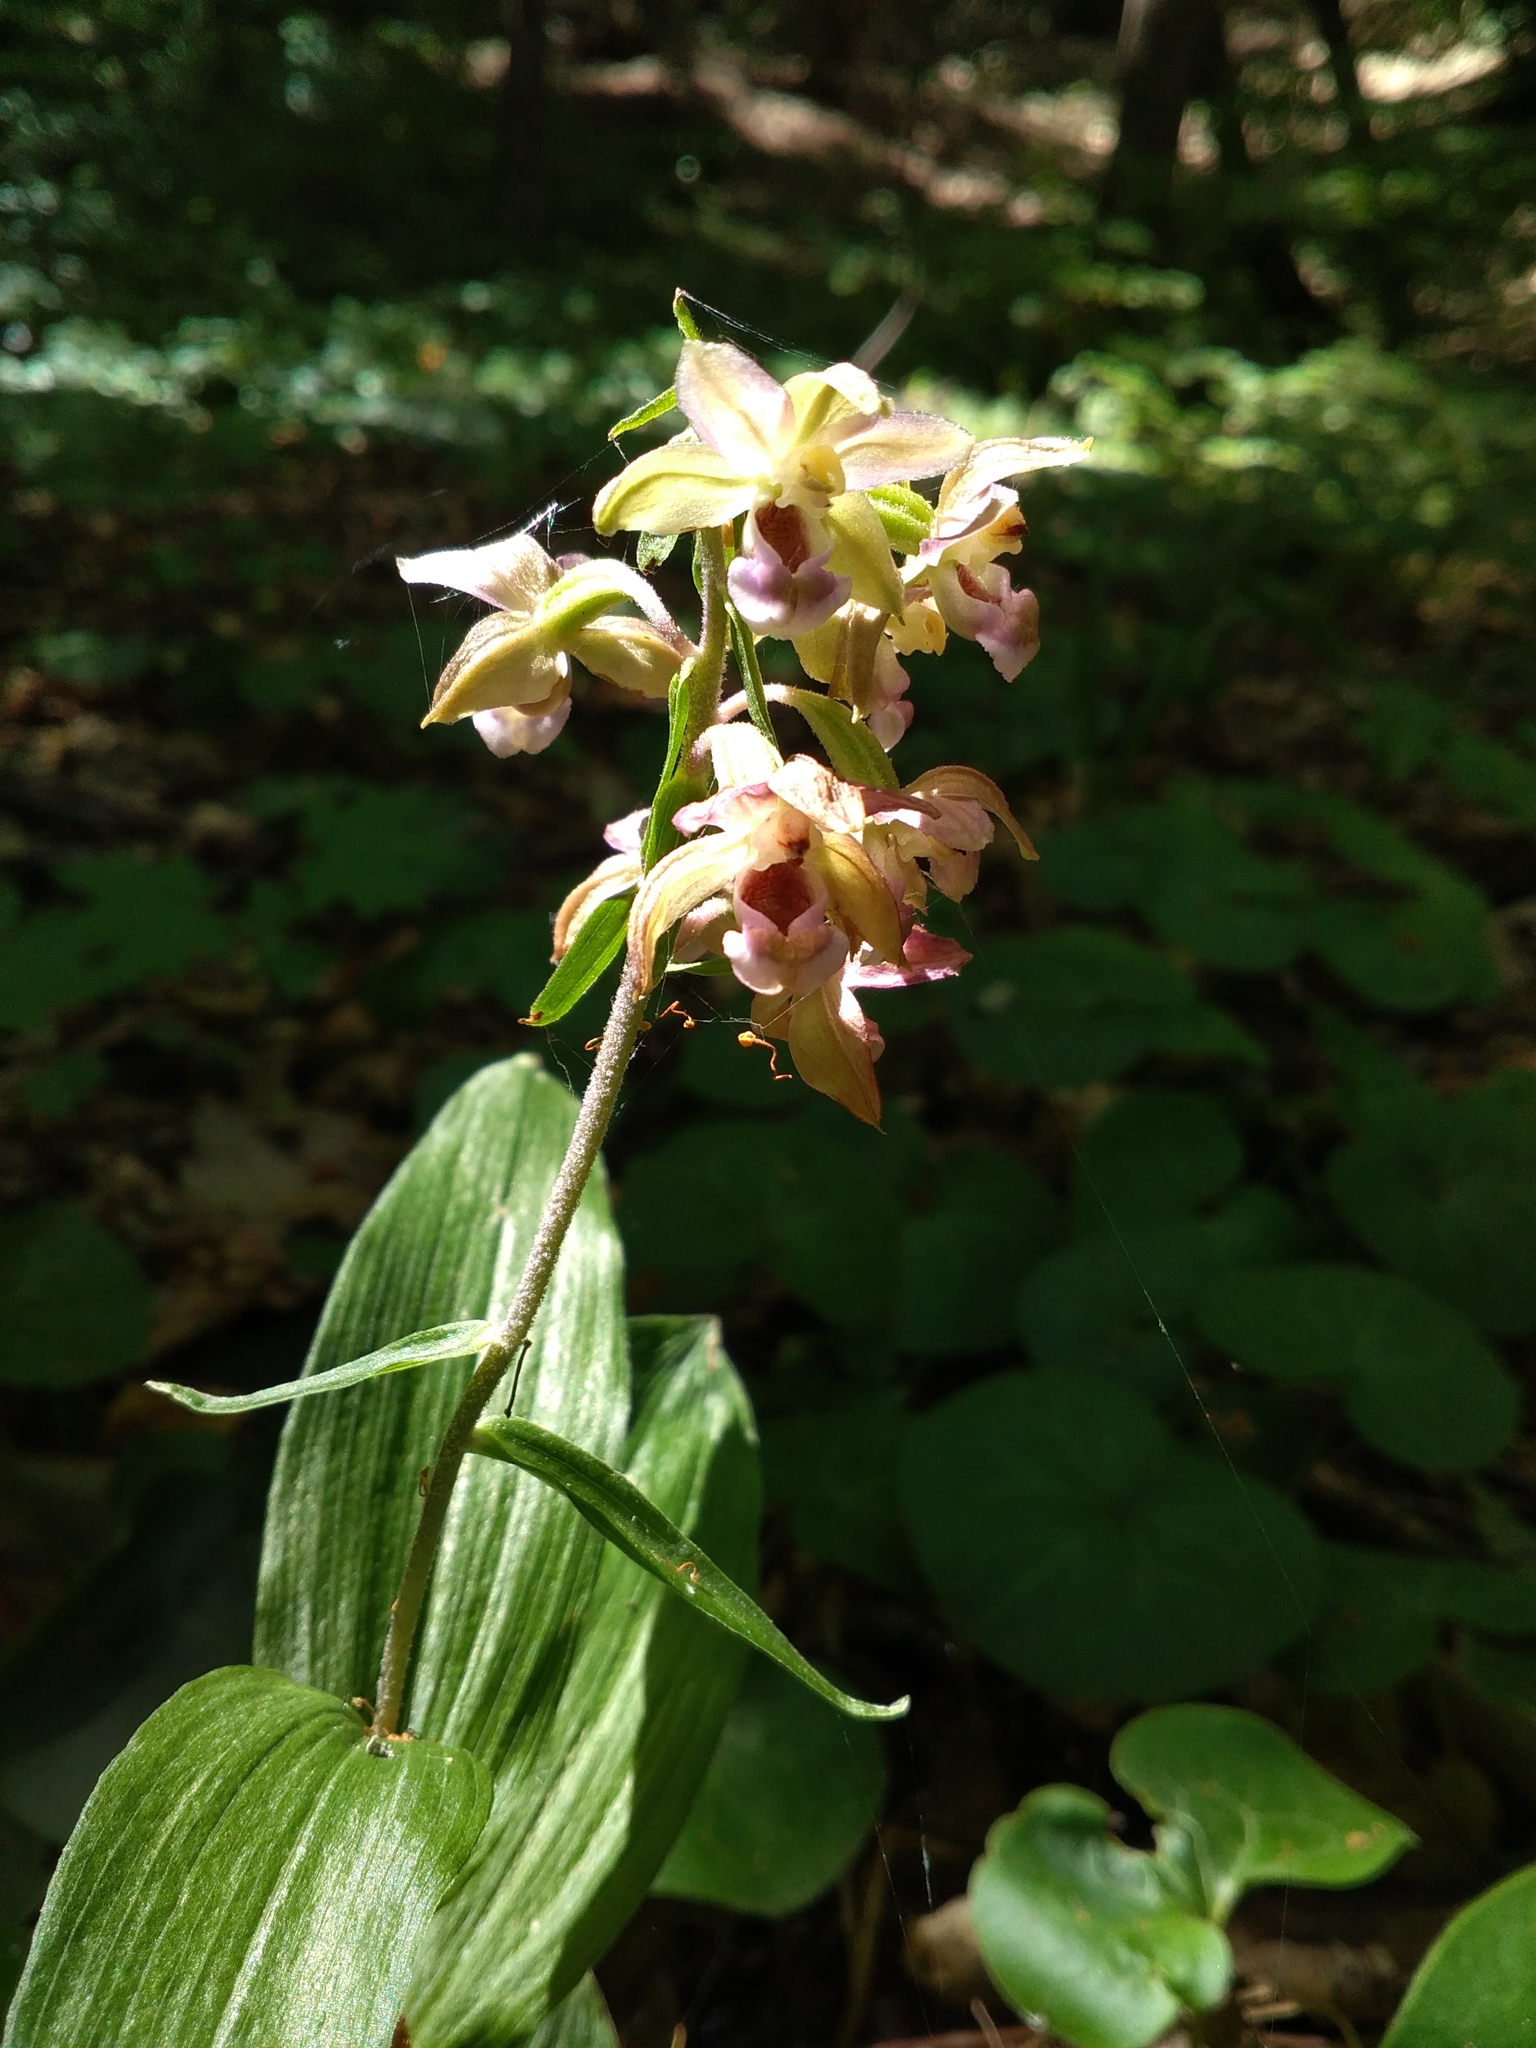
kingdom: Plantae
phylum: Tracheophyta
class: Liliopsida
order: Asparagales
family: Orchidaceae
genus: Epipactis
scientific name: Epipactis helleborine
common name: Broad-leaved helleborine
